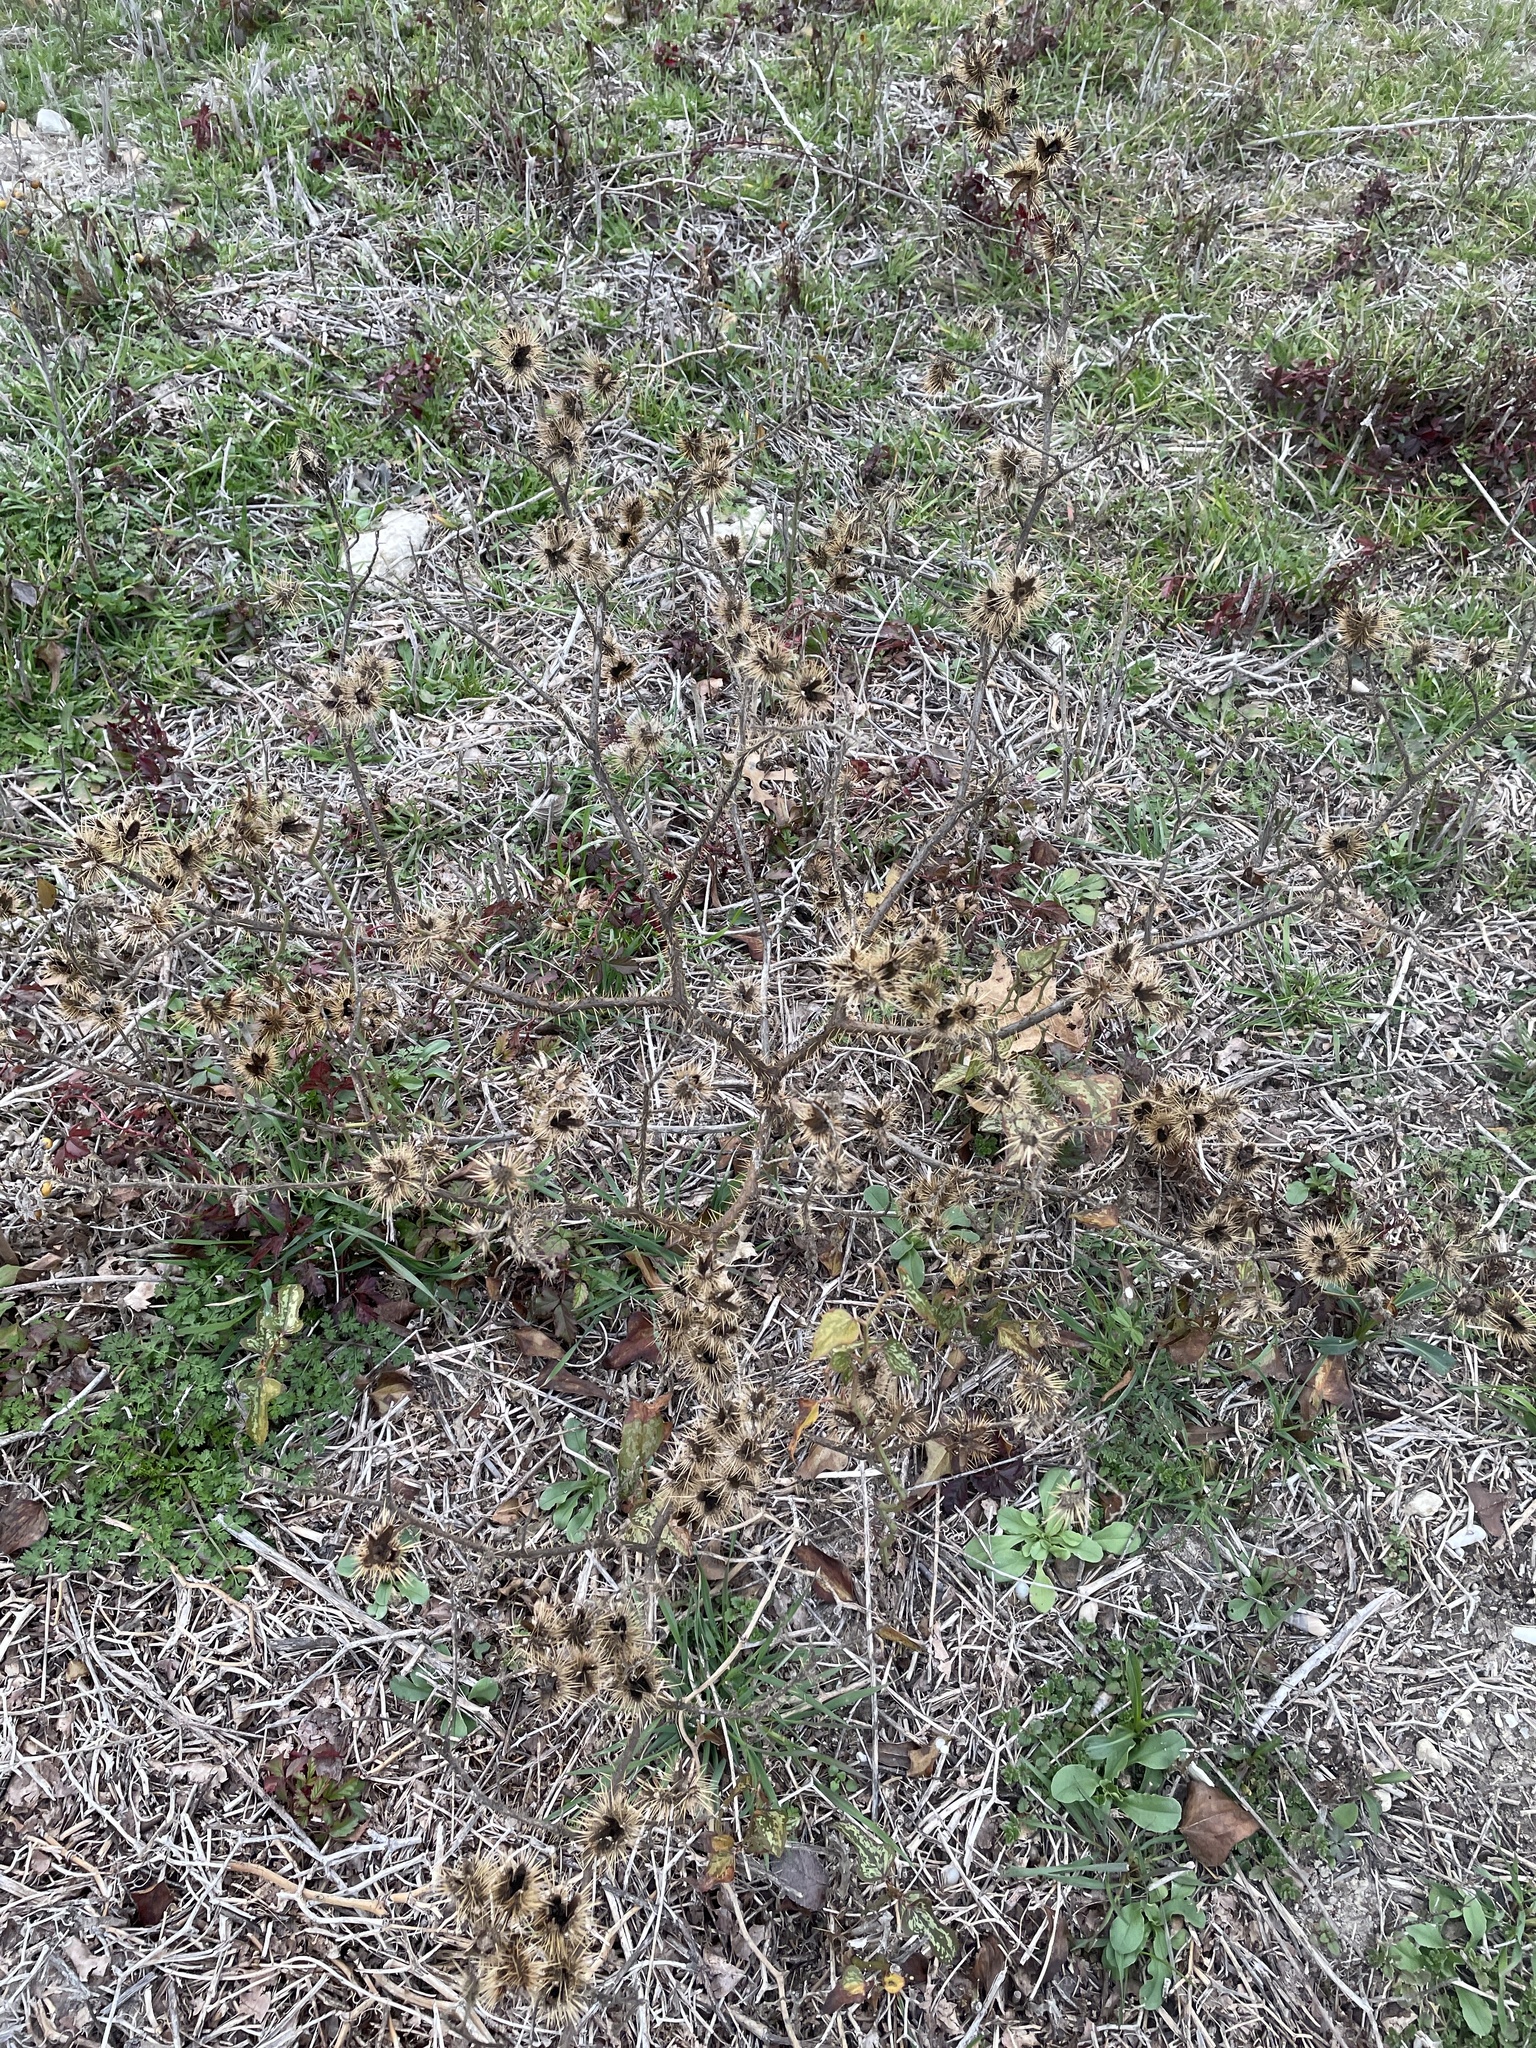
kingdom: Plantae
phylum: Tracheophyta
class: Magnoliopsida
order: Solanales
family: Solanaceae
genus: Solanum
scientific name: Solanum angustifolium
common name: Buffalobur nightshade
